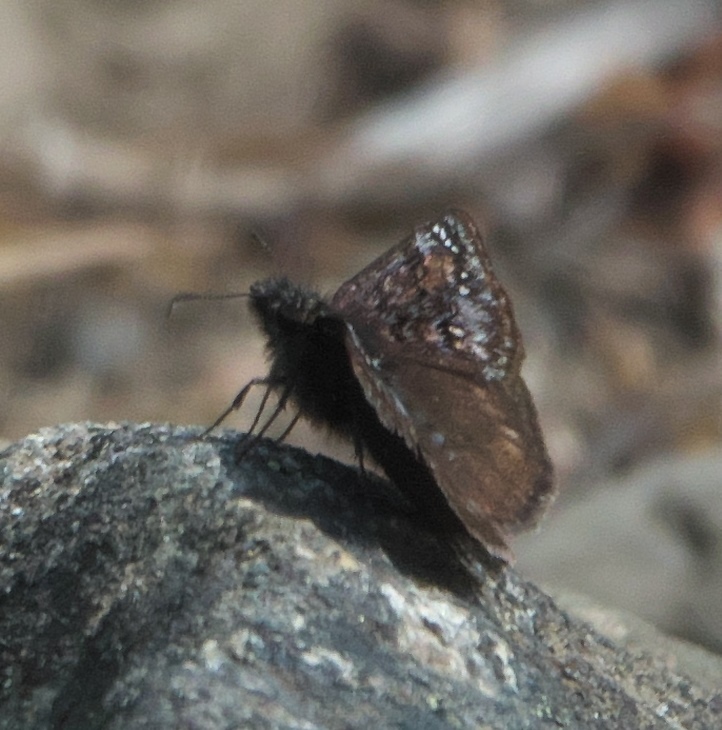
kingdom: Animalia
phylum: Arthropoda
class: Insecta
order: Lepidoptera
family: Hesperiidae
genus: Erynnis
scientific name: Erynnis pacuvius
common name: Pacuvius duskywing
